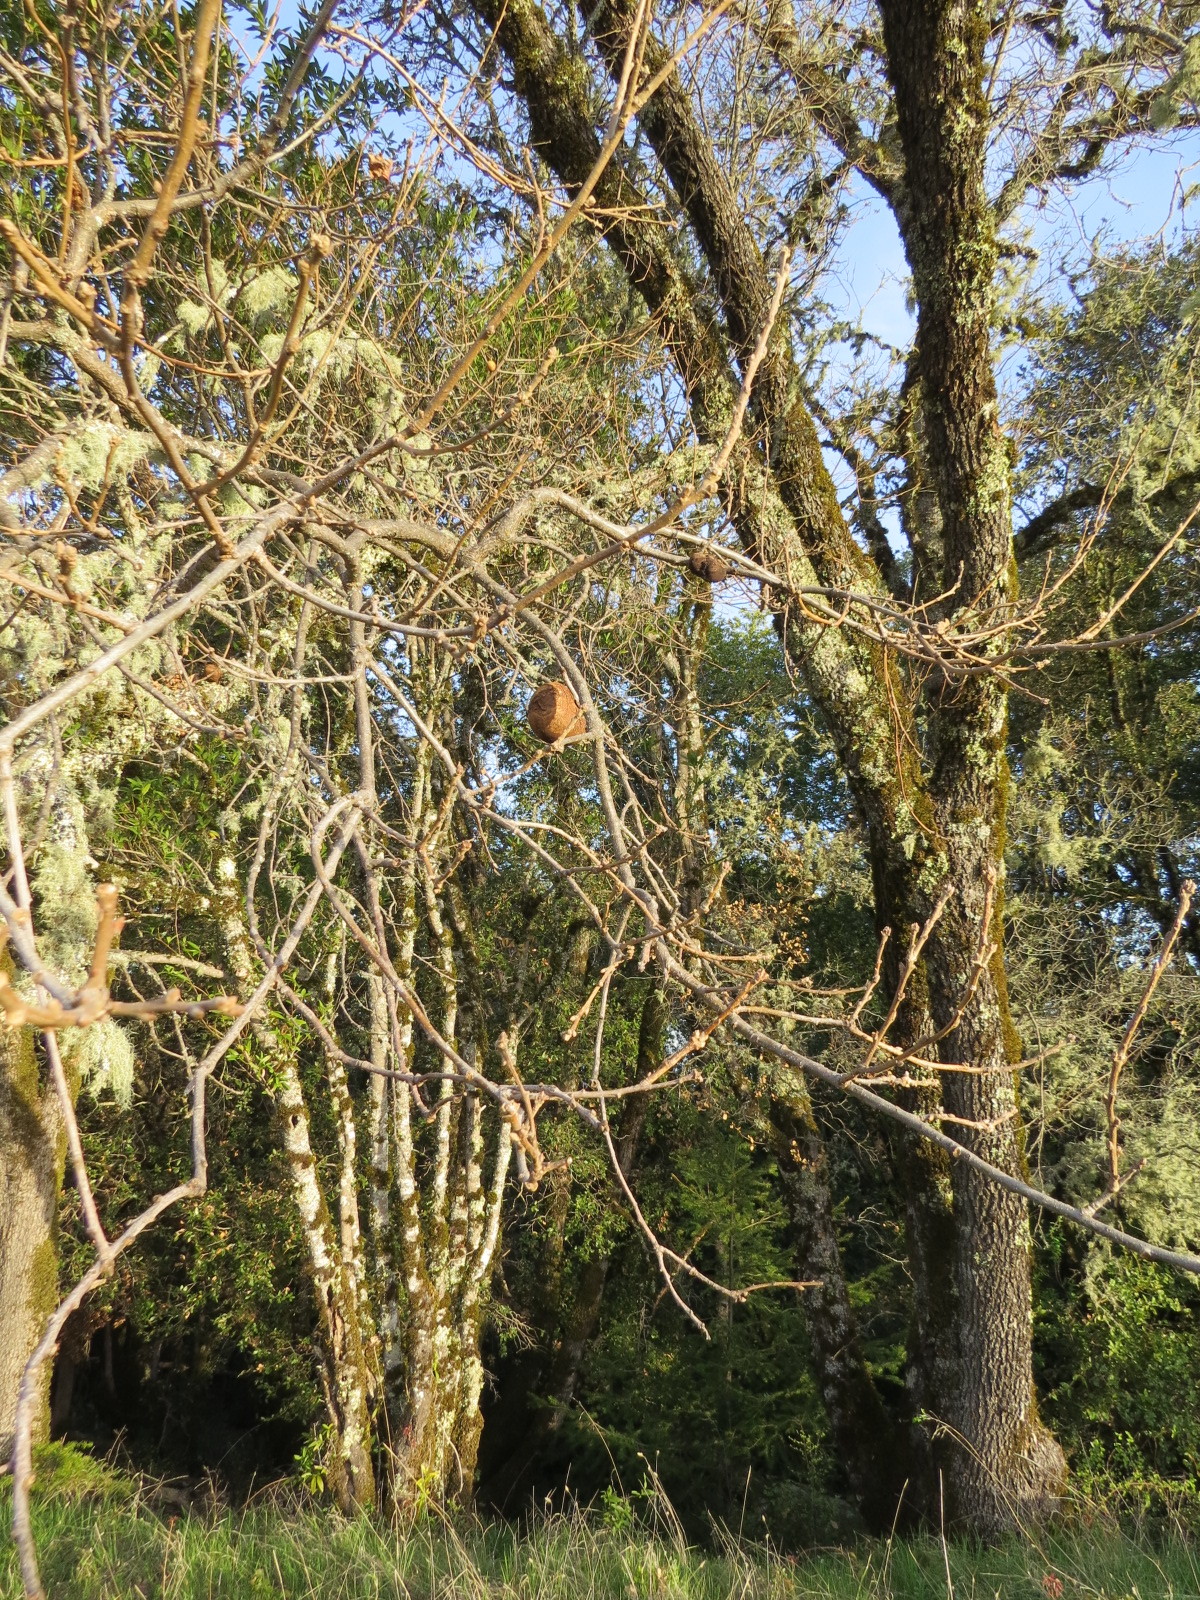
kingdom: Animalia
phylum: Arthropoda
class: Insecta
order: Hymenoptera
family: Cynipidae
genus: Andricus
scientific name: Andricus quercuscalifornicus
